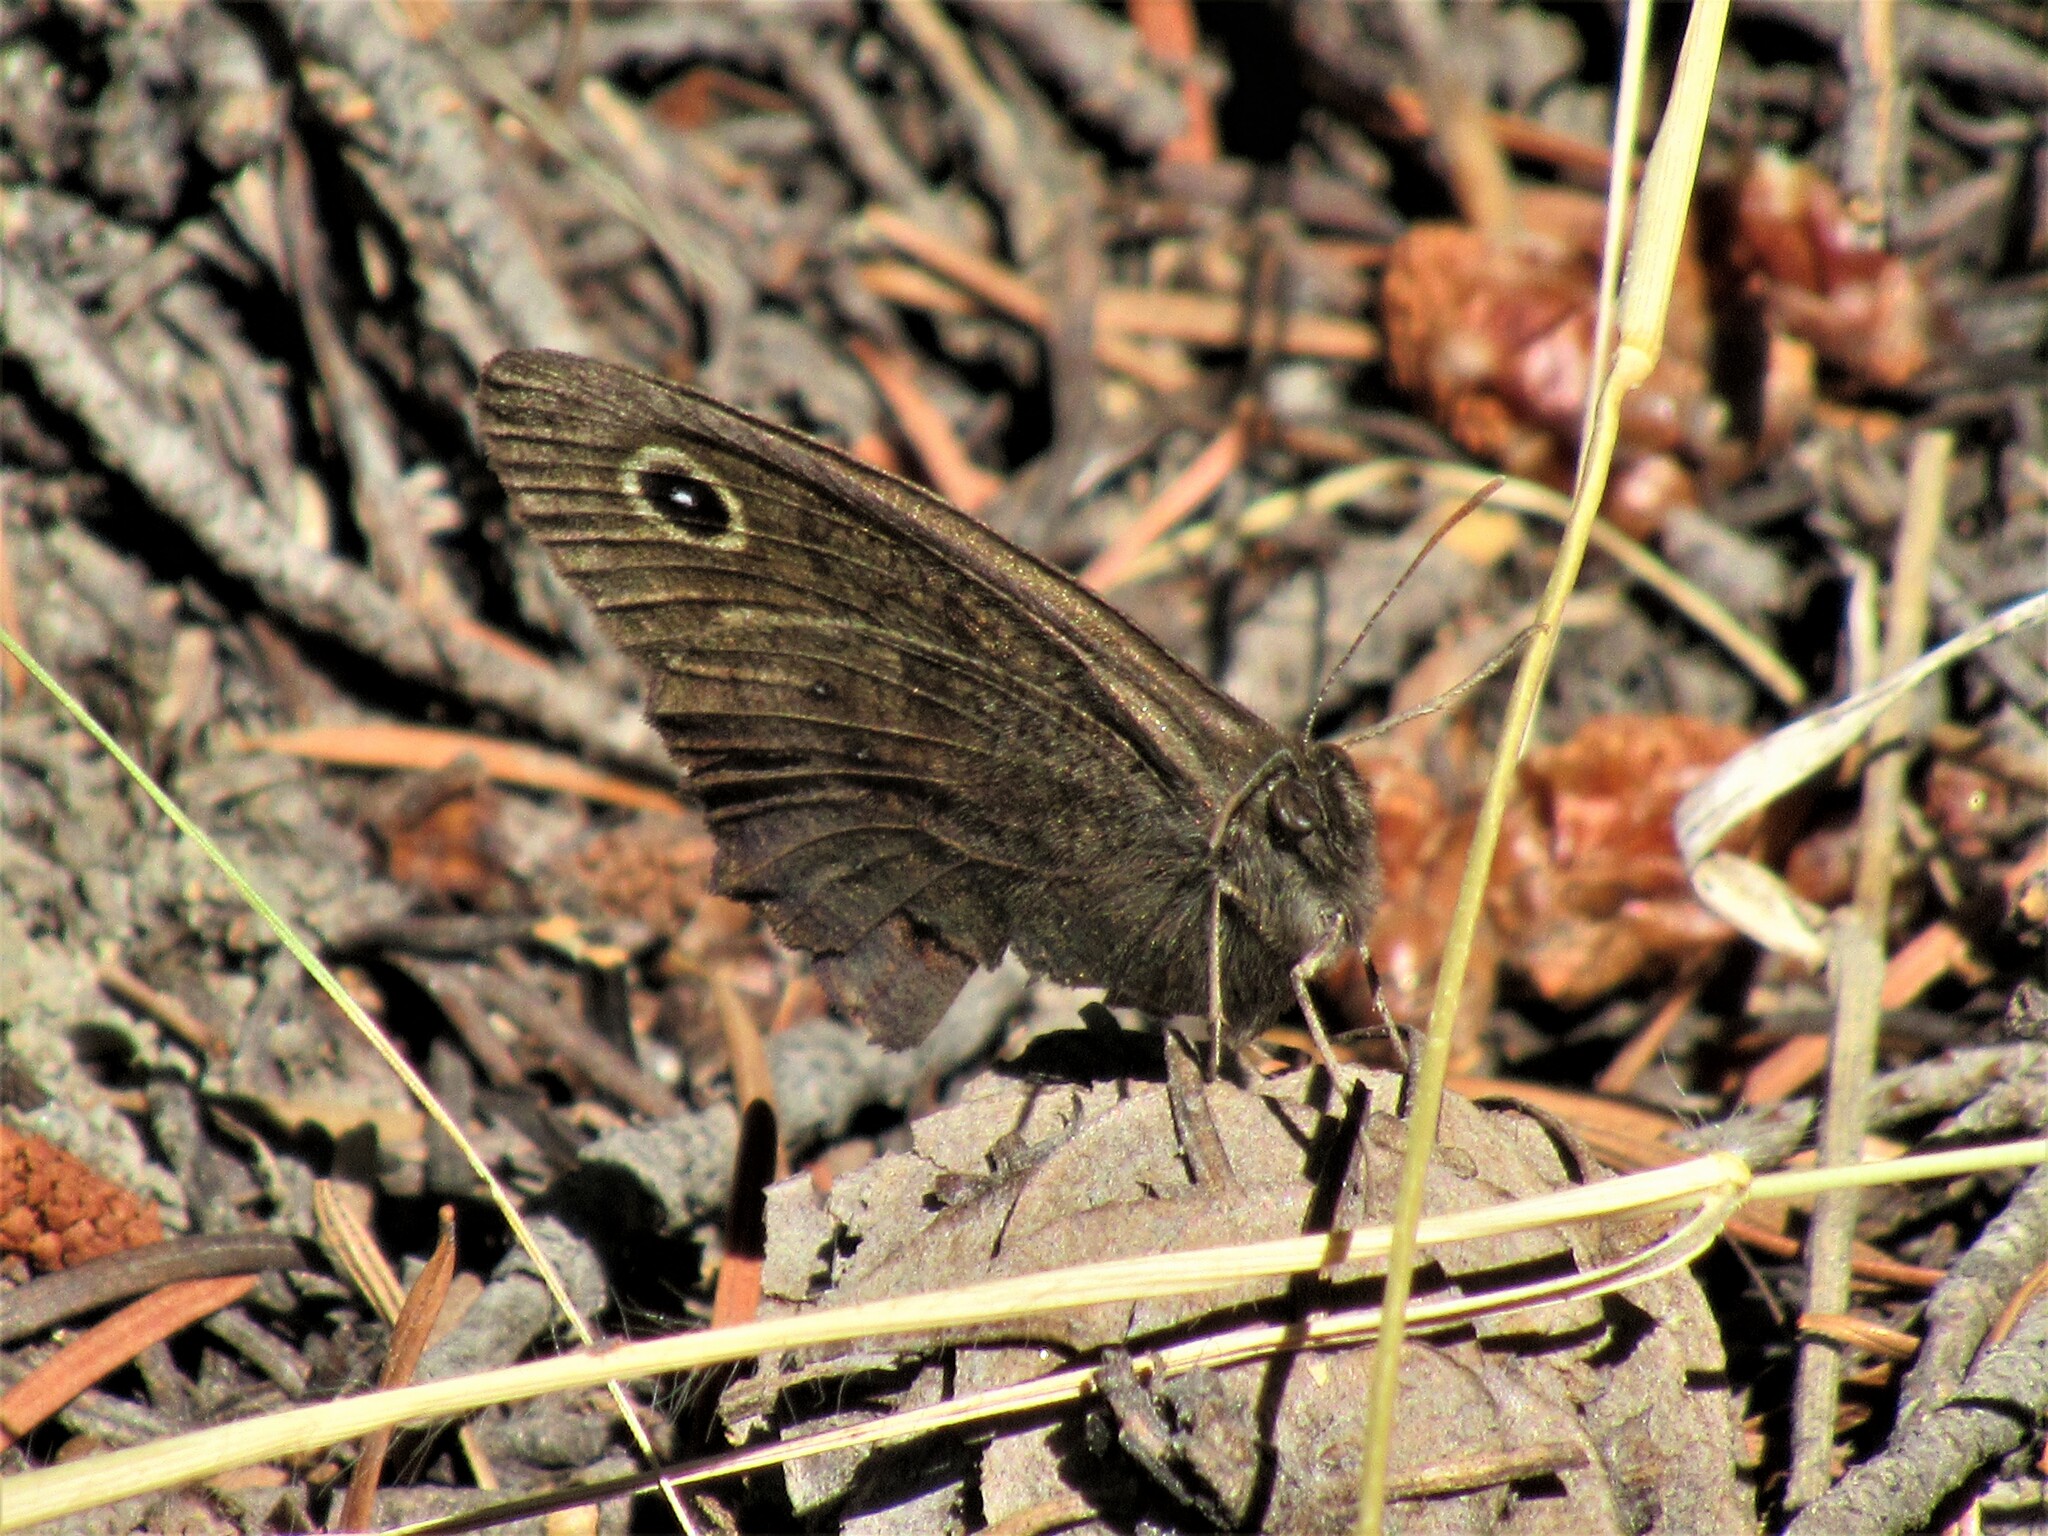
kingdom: Animalia
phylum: Arthropoda
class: Insecta
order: Lepidoptera
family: Nymphalidae
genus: Cercyonis
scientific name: Cercyonis pegala
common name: Common wood-nymph
